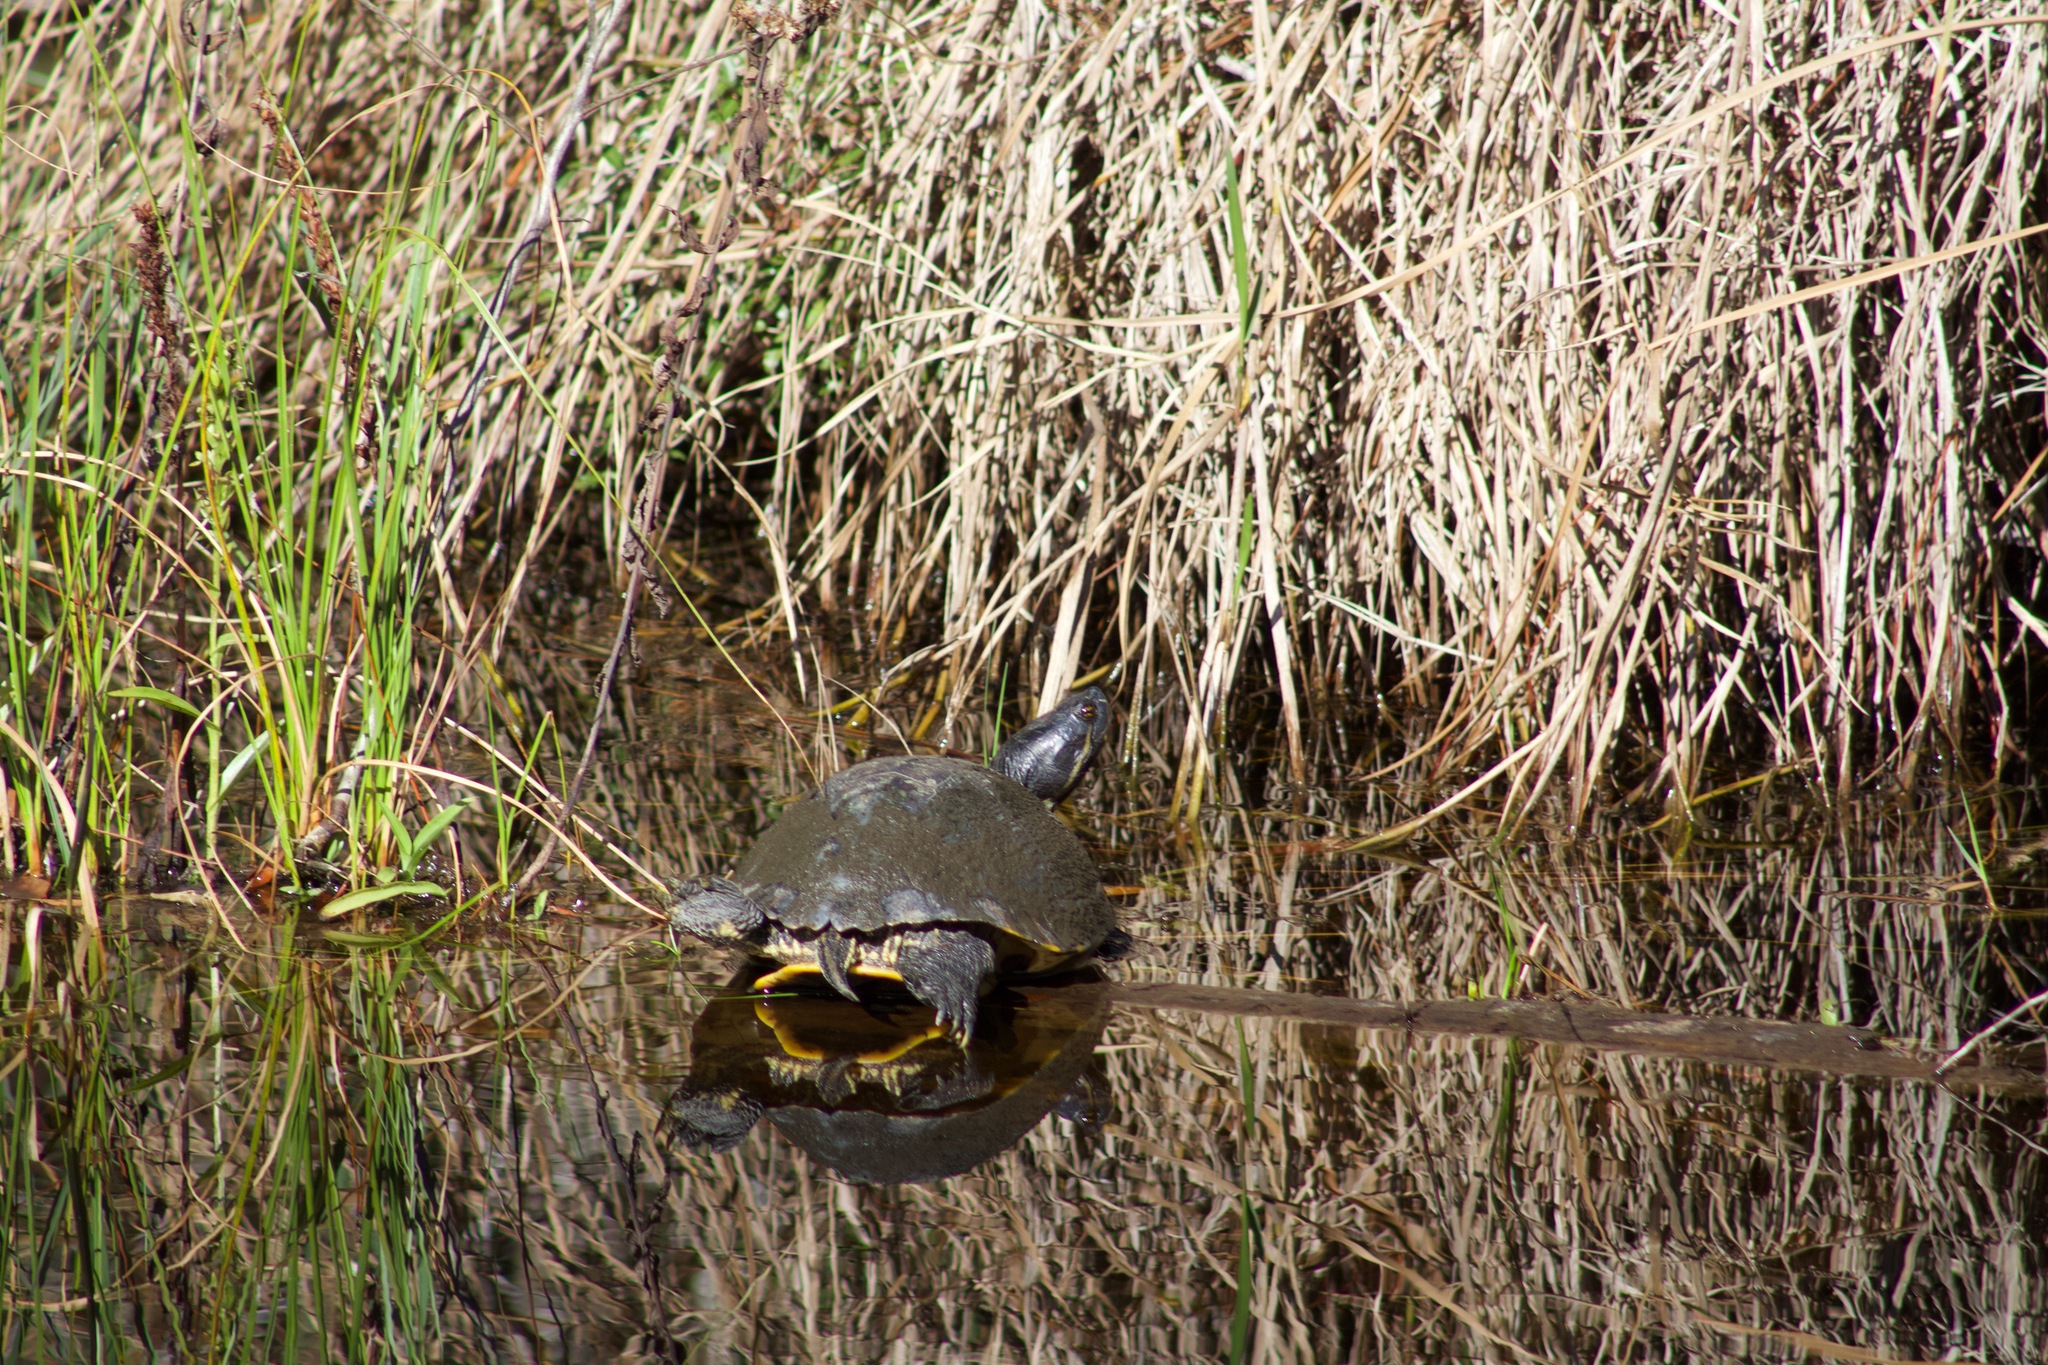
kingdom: Animalia
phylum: Chordata
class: Testudines
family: Emydidae
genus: Trachemys
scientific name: Trachemys scripta
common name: Slider
